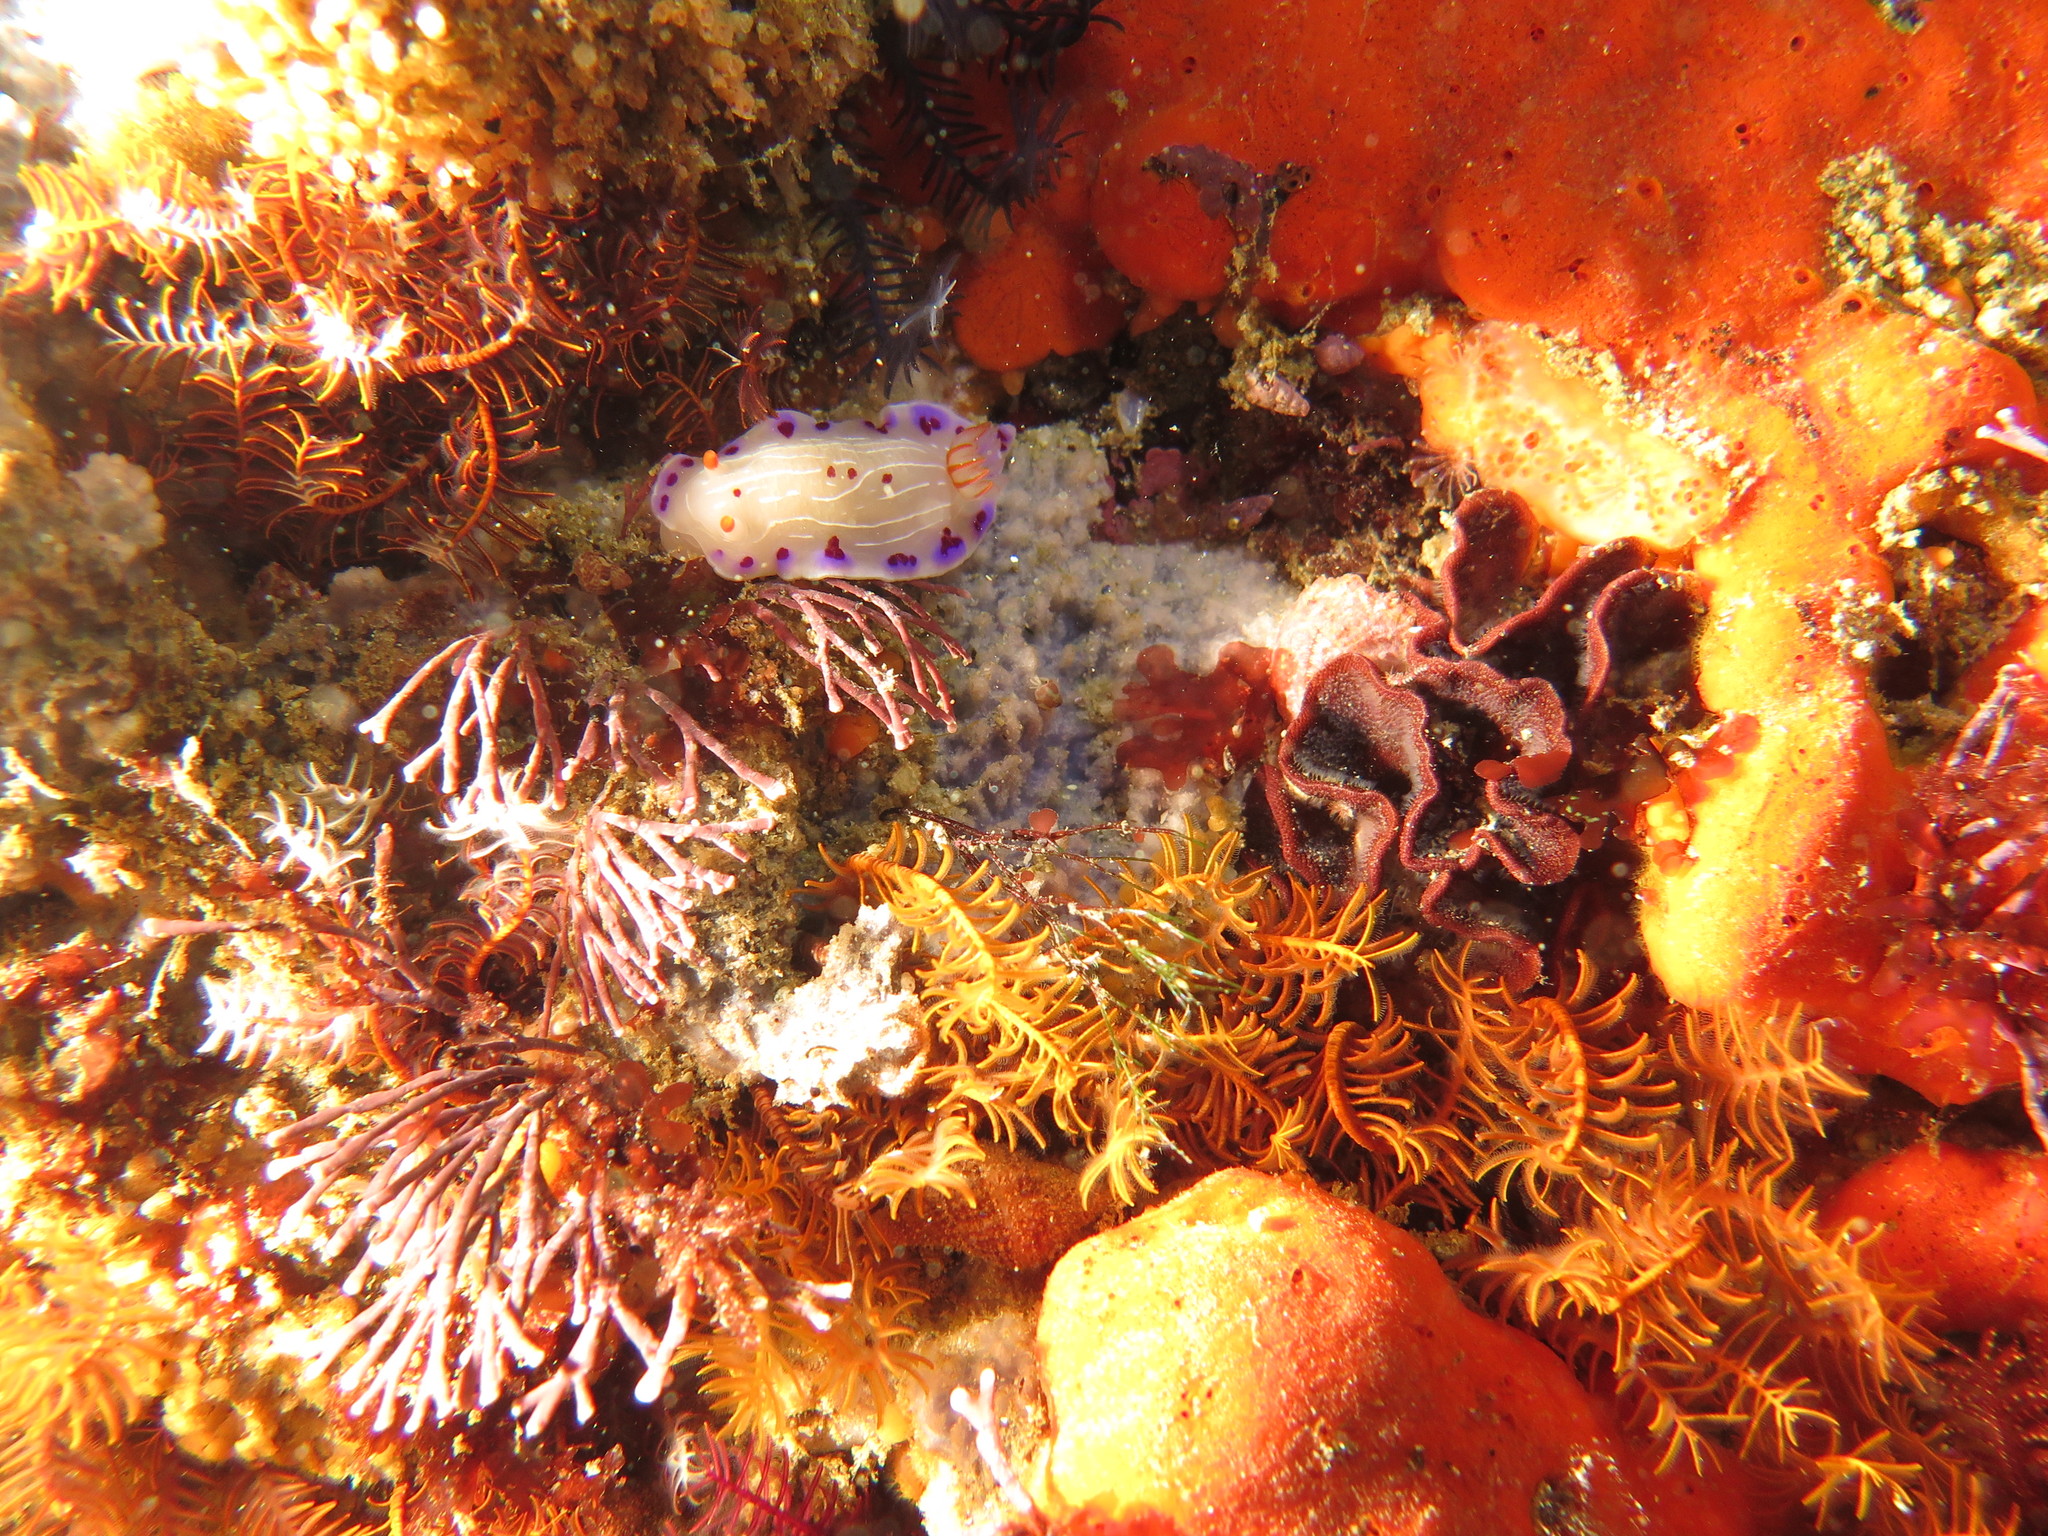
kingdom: Animalia
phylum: Mollusca
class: Gastropoda
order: Nudibranchia
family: Chromodorididae
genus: Hypselodoris
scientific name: Hypselodoris capensis
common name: Cape dorid
